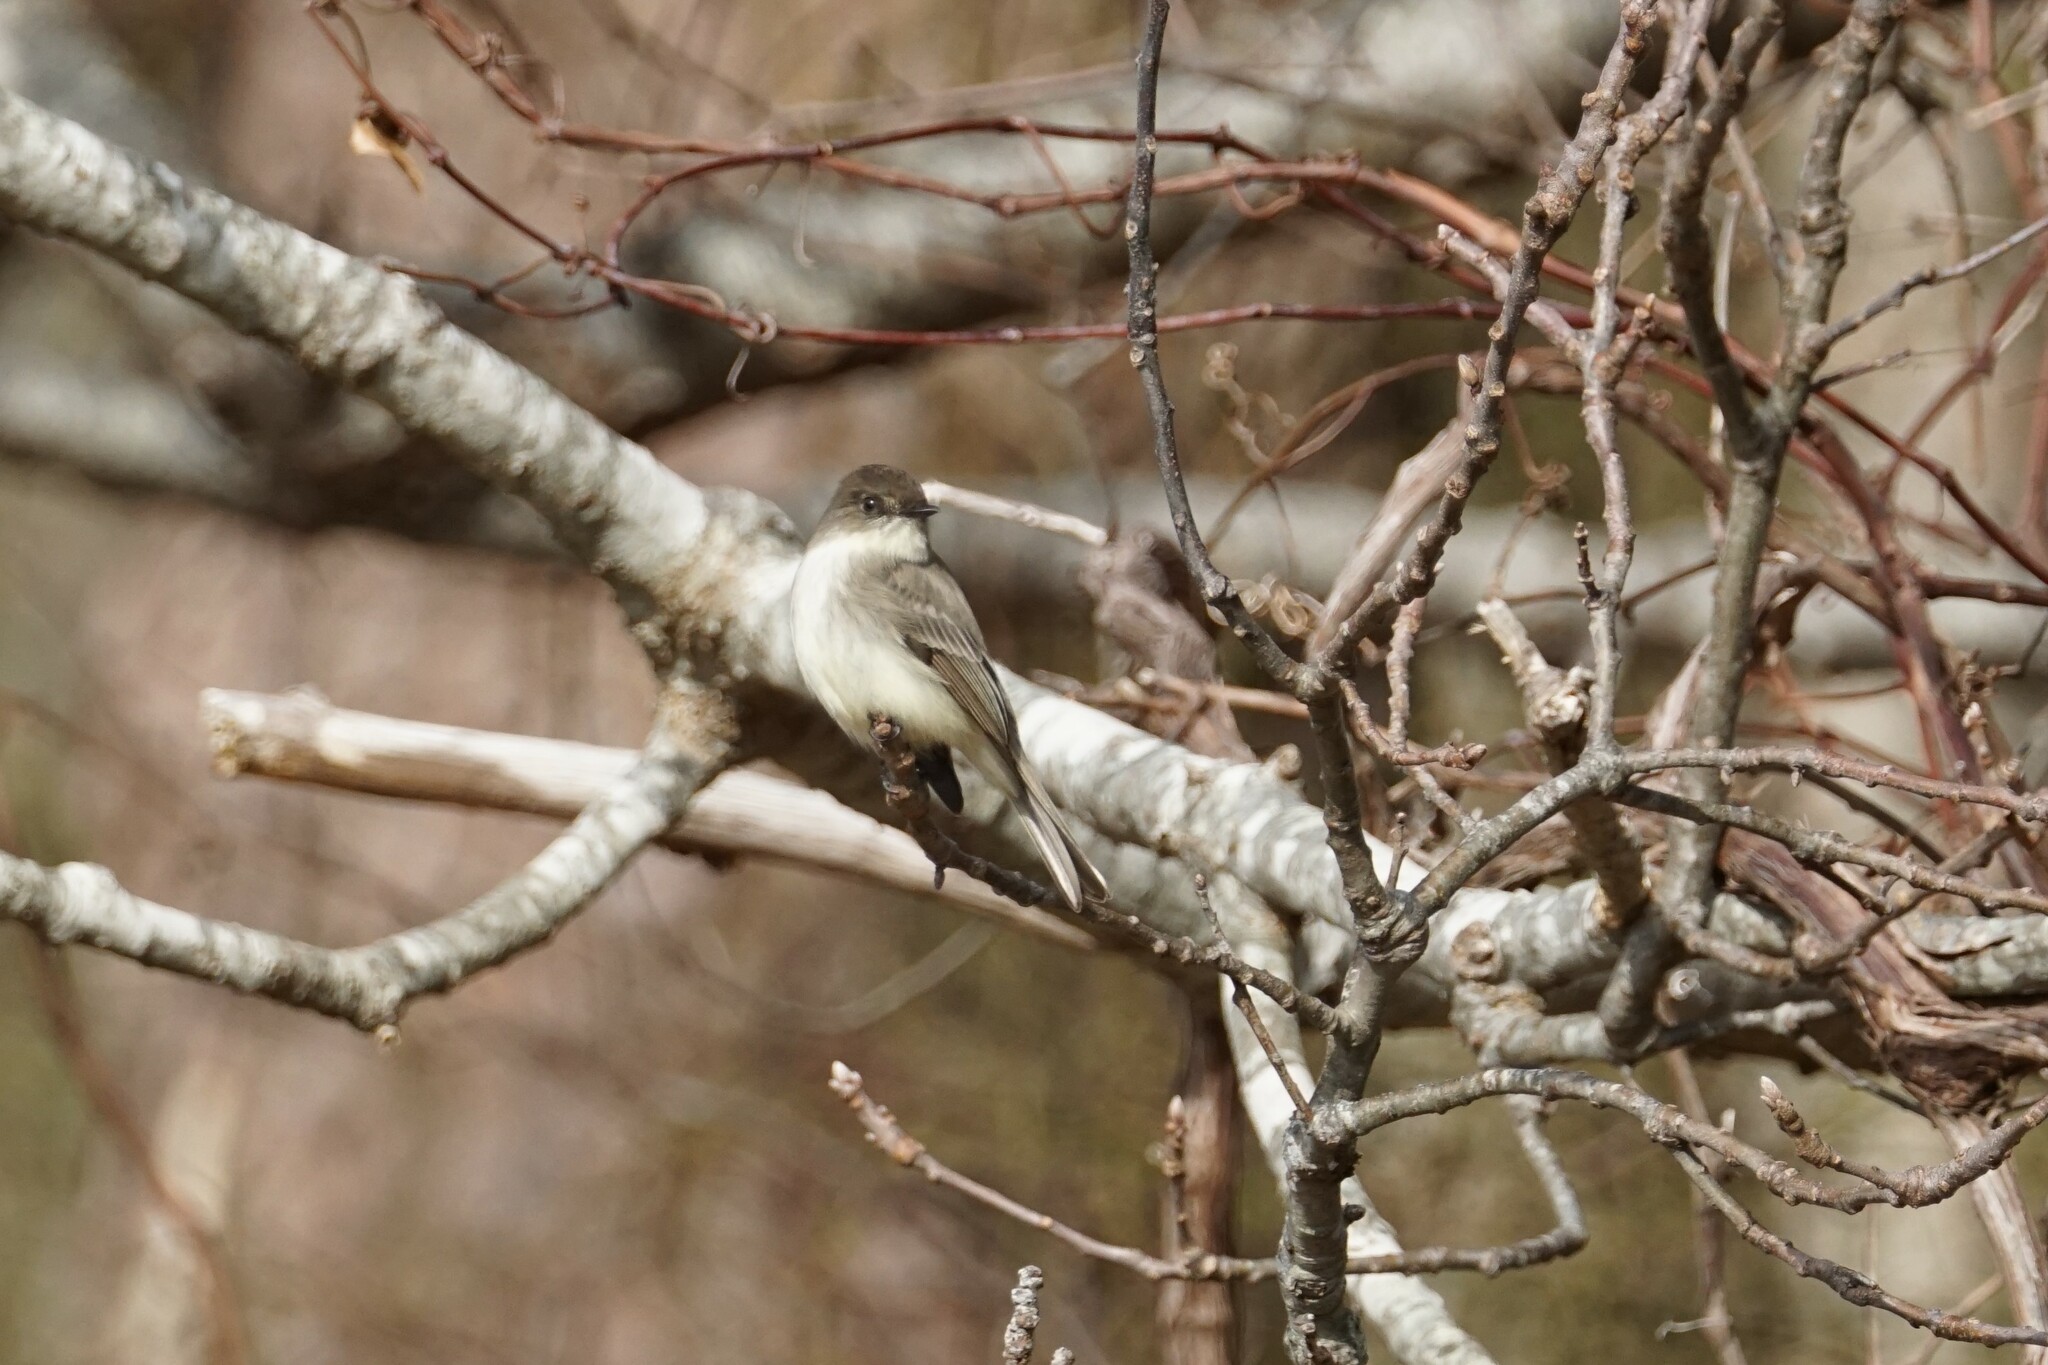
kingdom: Animalia
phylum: Chordata
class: Aves
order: Passeriformes
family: Tyrannidae
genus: Sayornis
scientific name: Sayornis phoebe
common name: Eastern phoebe
